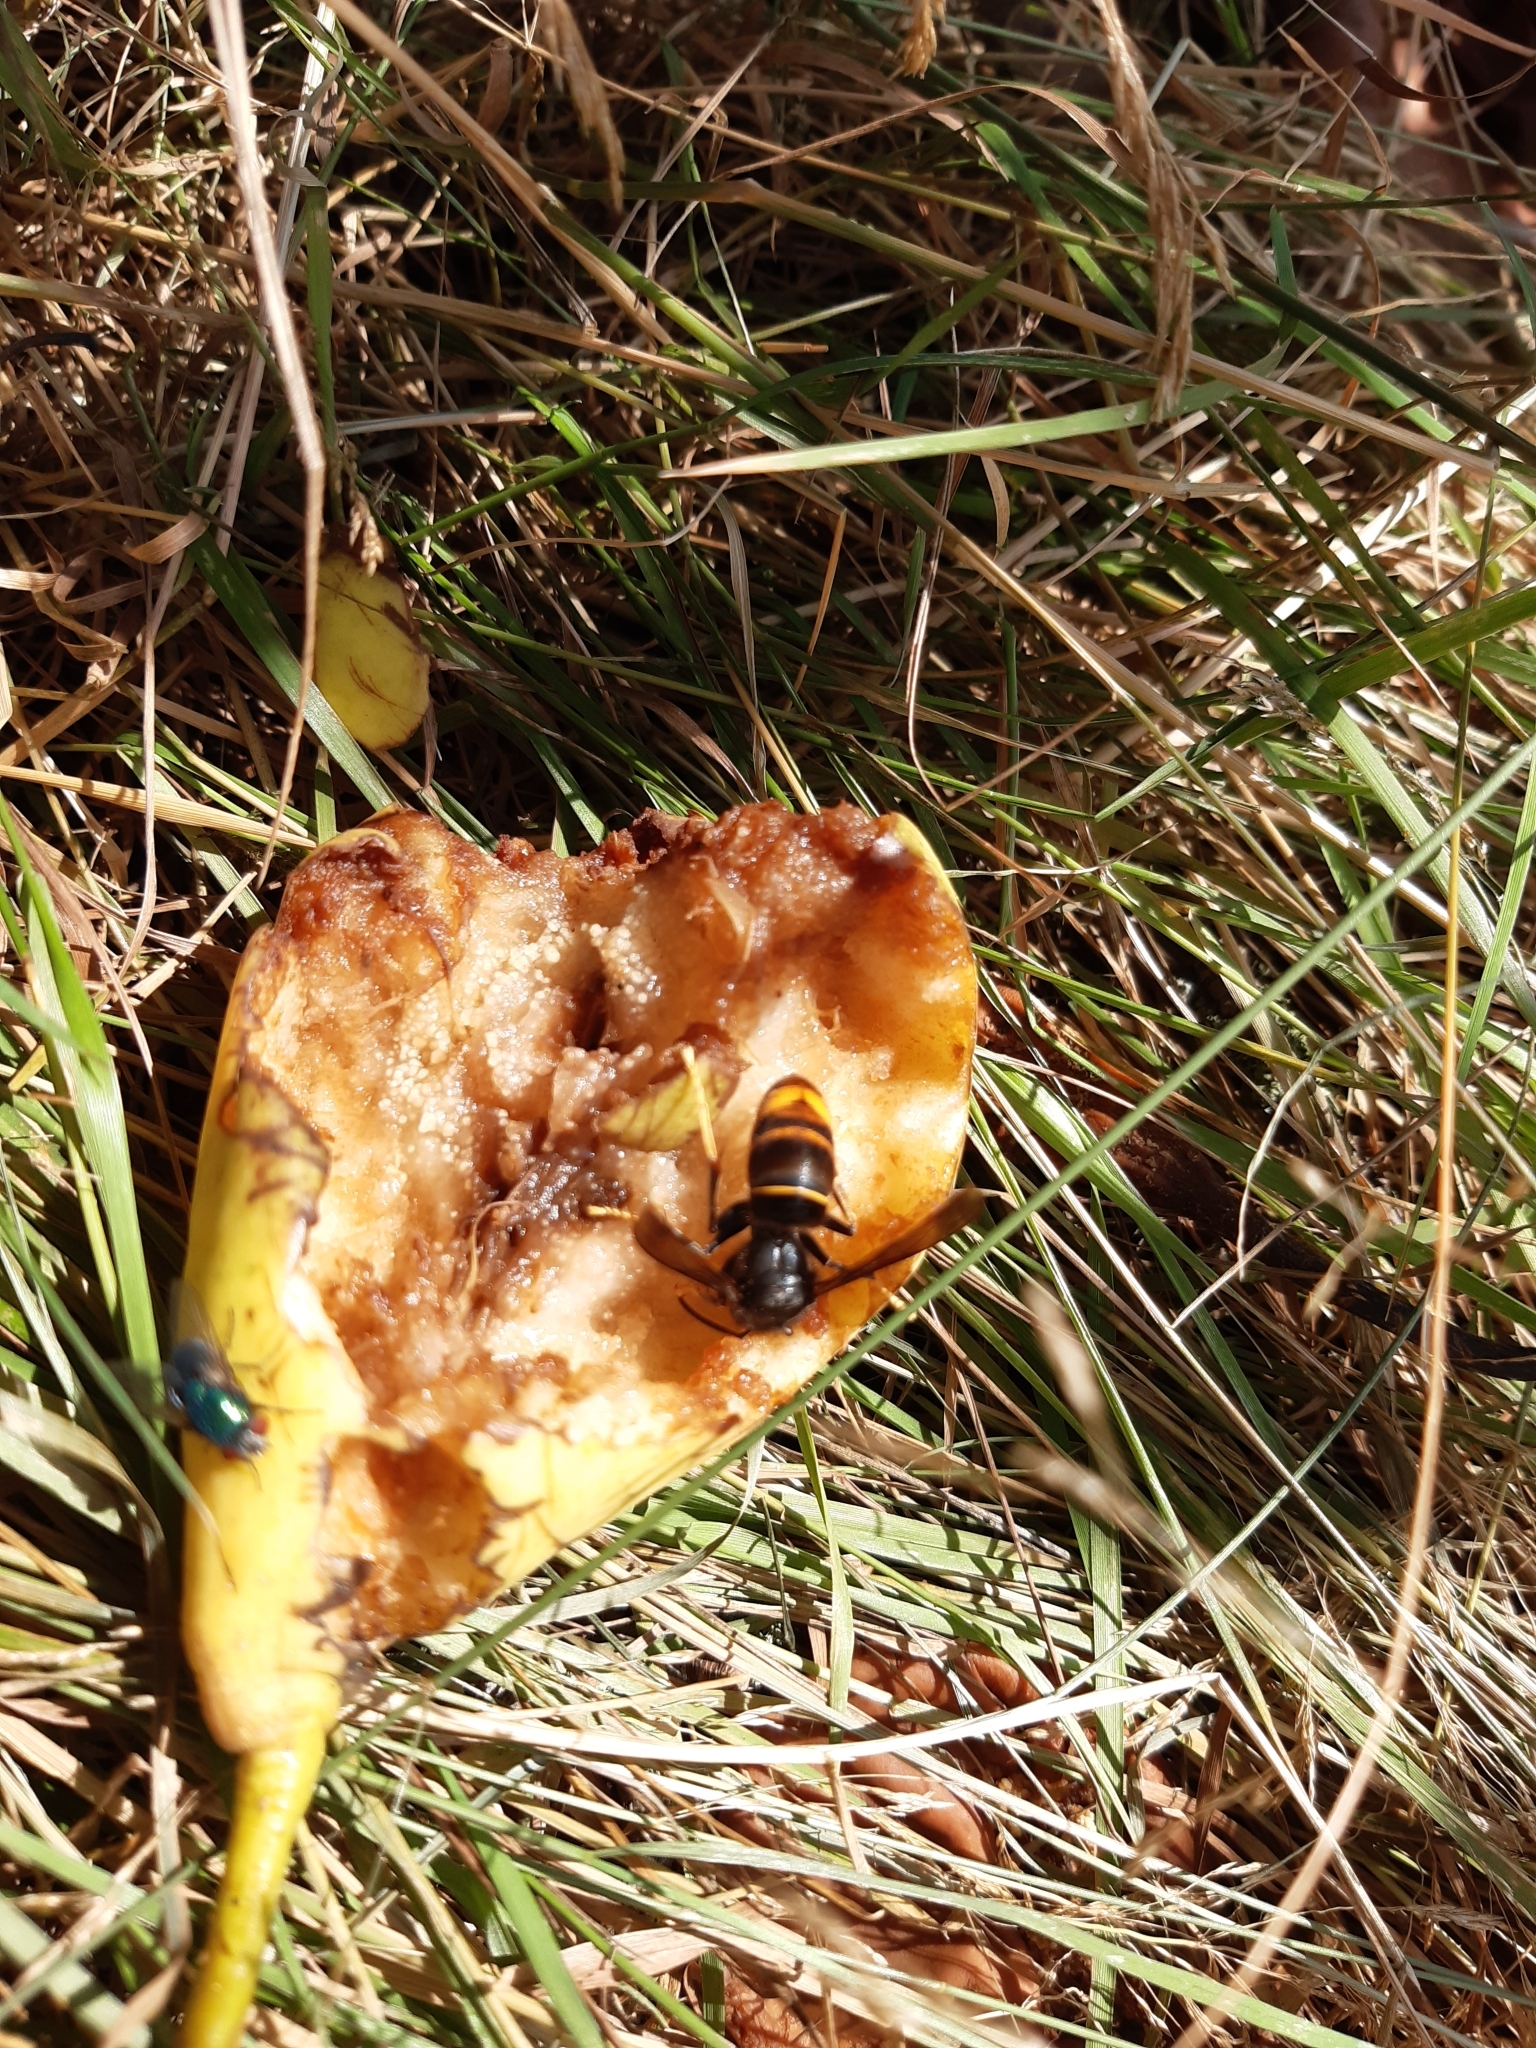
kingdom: Animalia
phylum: Arthropoda
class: Insecta
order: Hymenoptera
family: Vespidae
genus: Vespa
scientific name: Vespa velutina
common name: Asian hornet
